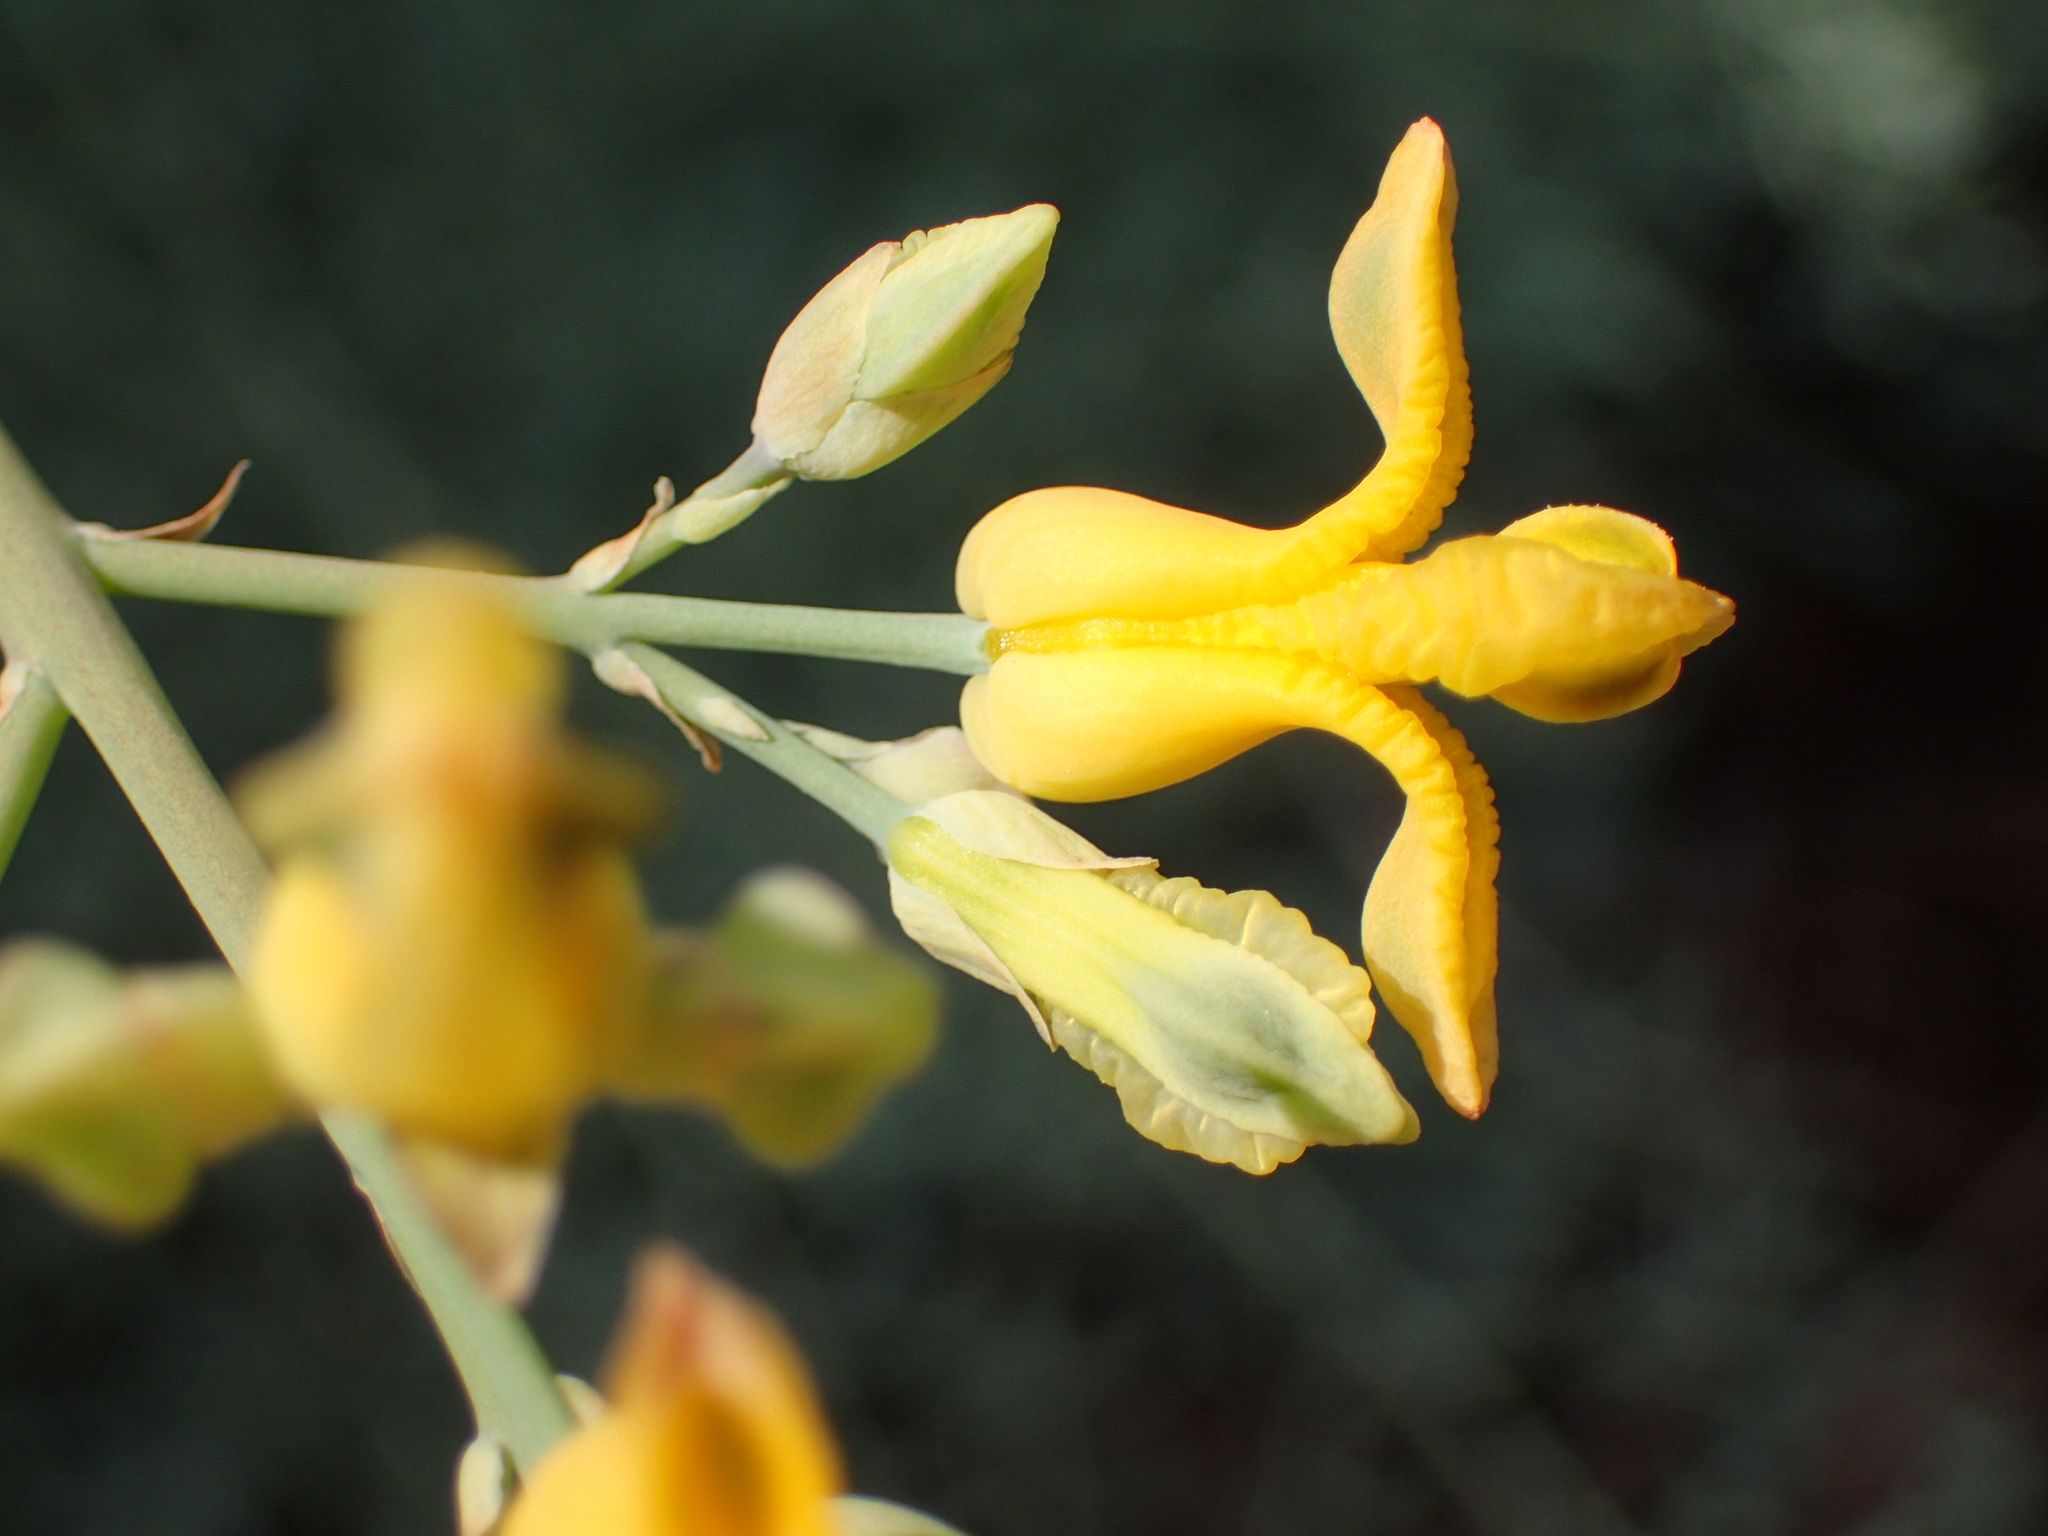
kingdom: Plantae
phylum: Tracheophyta
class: Magnoliopsida
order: Ranunculales
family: Papaveraceae
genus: Ehrendorferia
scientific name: Ehrendorferia chrysantha
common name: Golden eardrops
